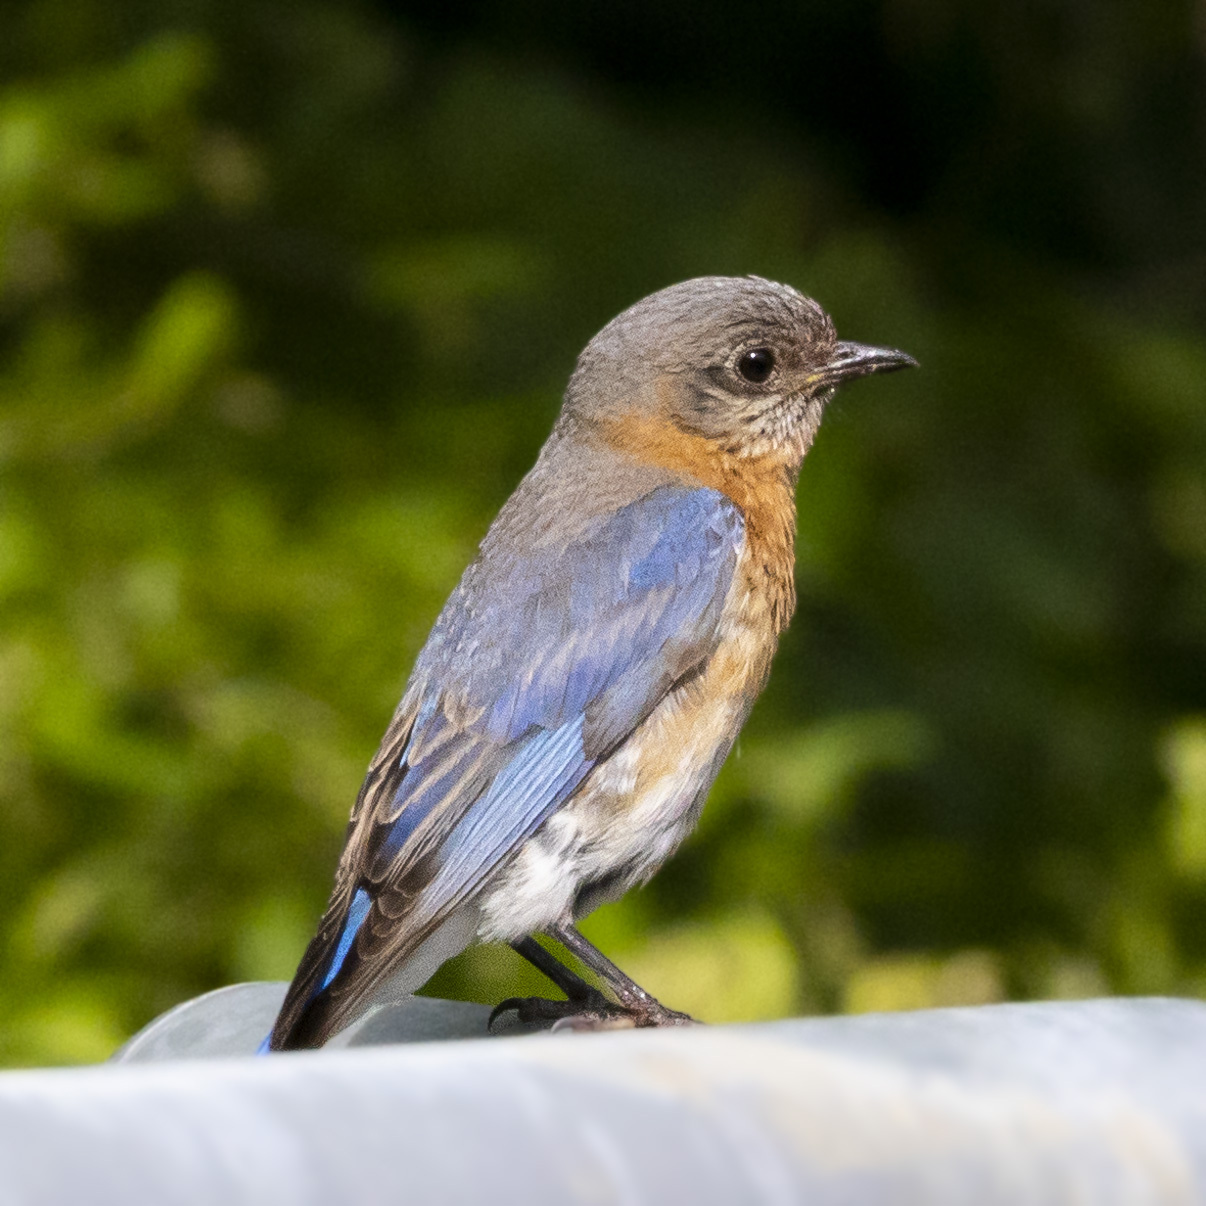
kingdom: Animalia
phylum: Chordata
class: Aves
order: Passeriformes
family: Turdidae
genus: Sialia
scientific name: Sialia sialis
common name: Eastern bluebird
